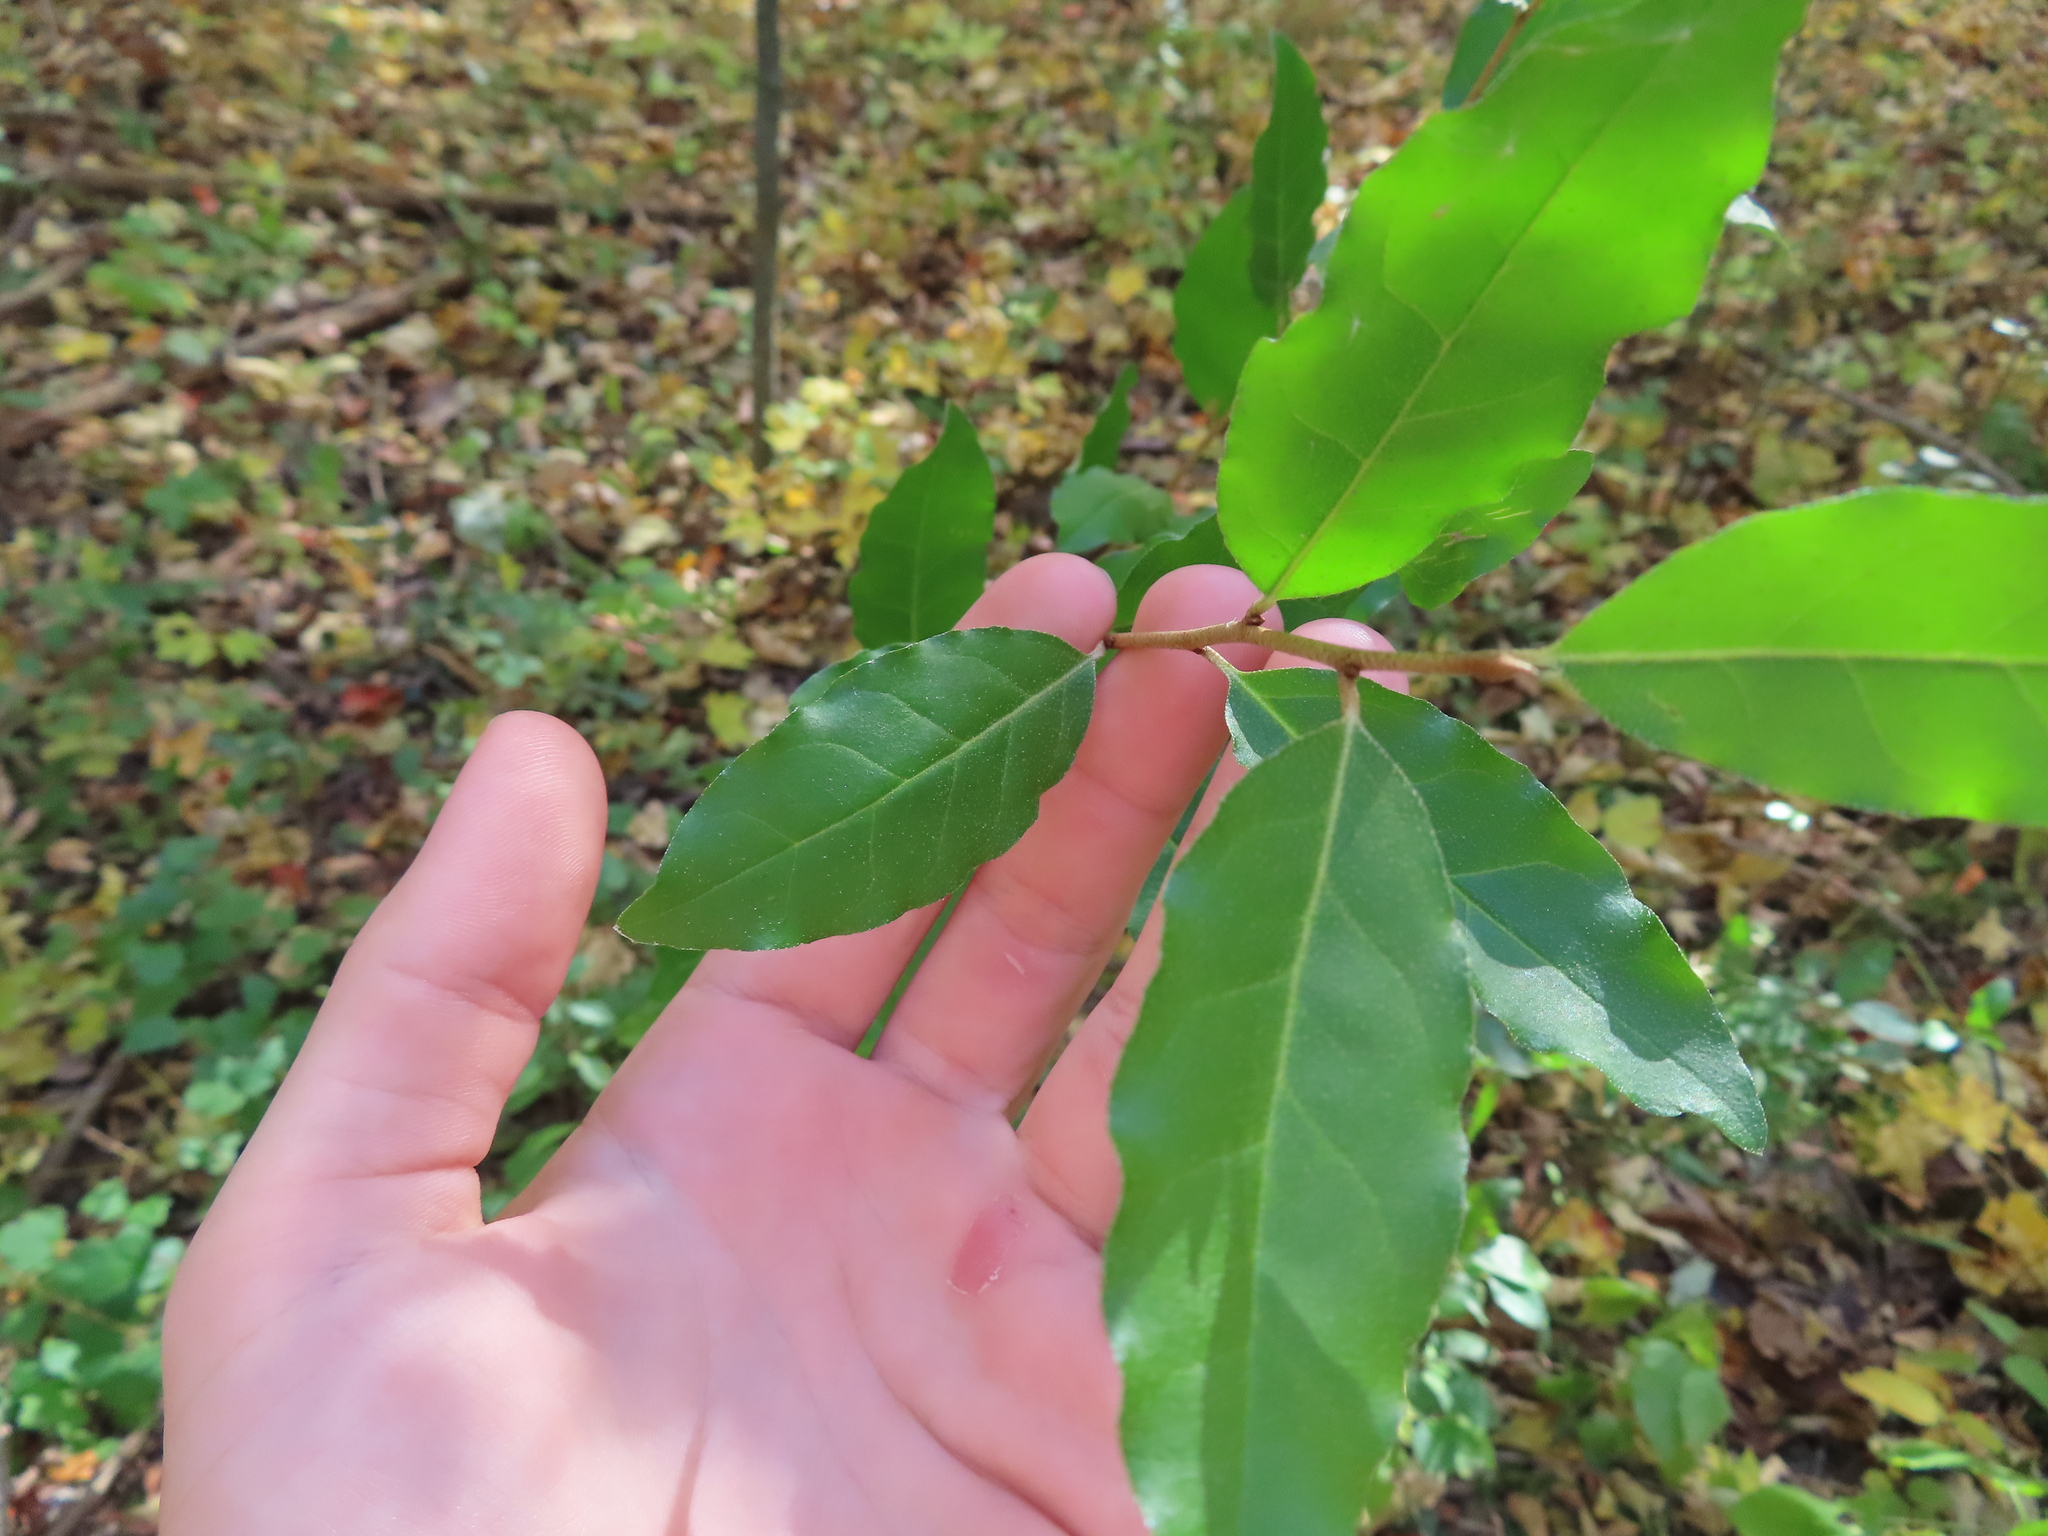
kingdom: Plantae
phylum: Tracheophyta
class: Magnoliopsida
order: Rosales
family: Elaeagnaceae
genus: Elaeagnus
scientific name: Elaeagnus umbellata
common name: Autumn olive
